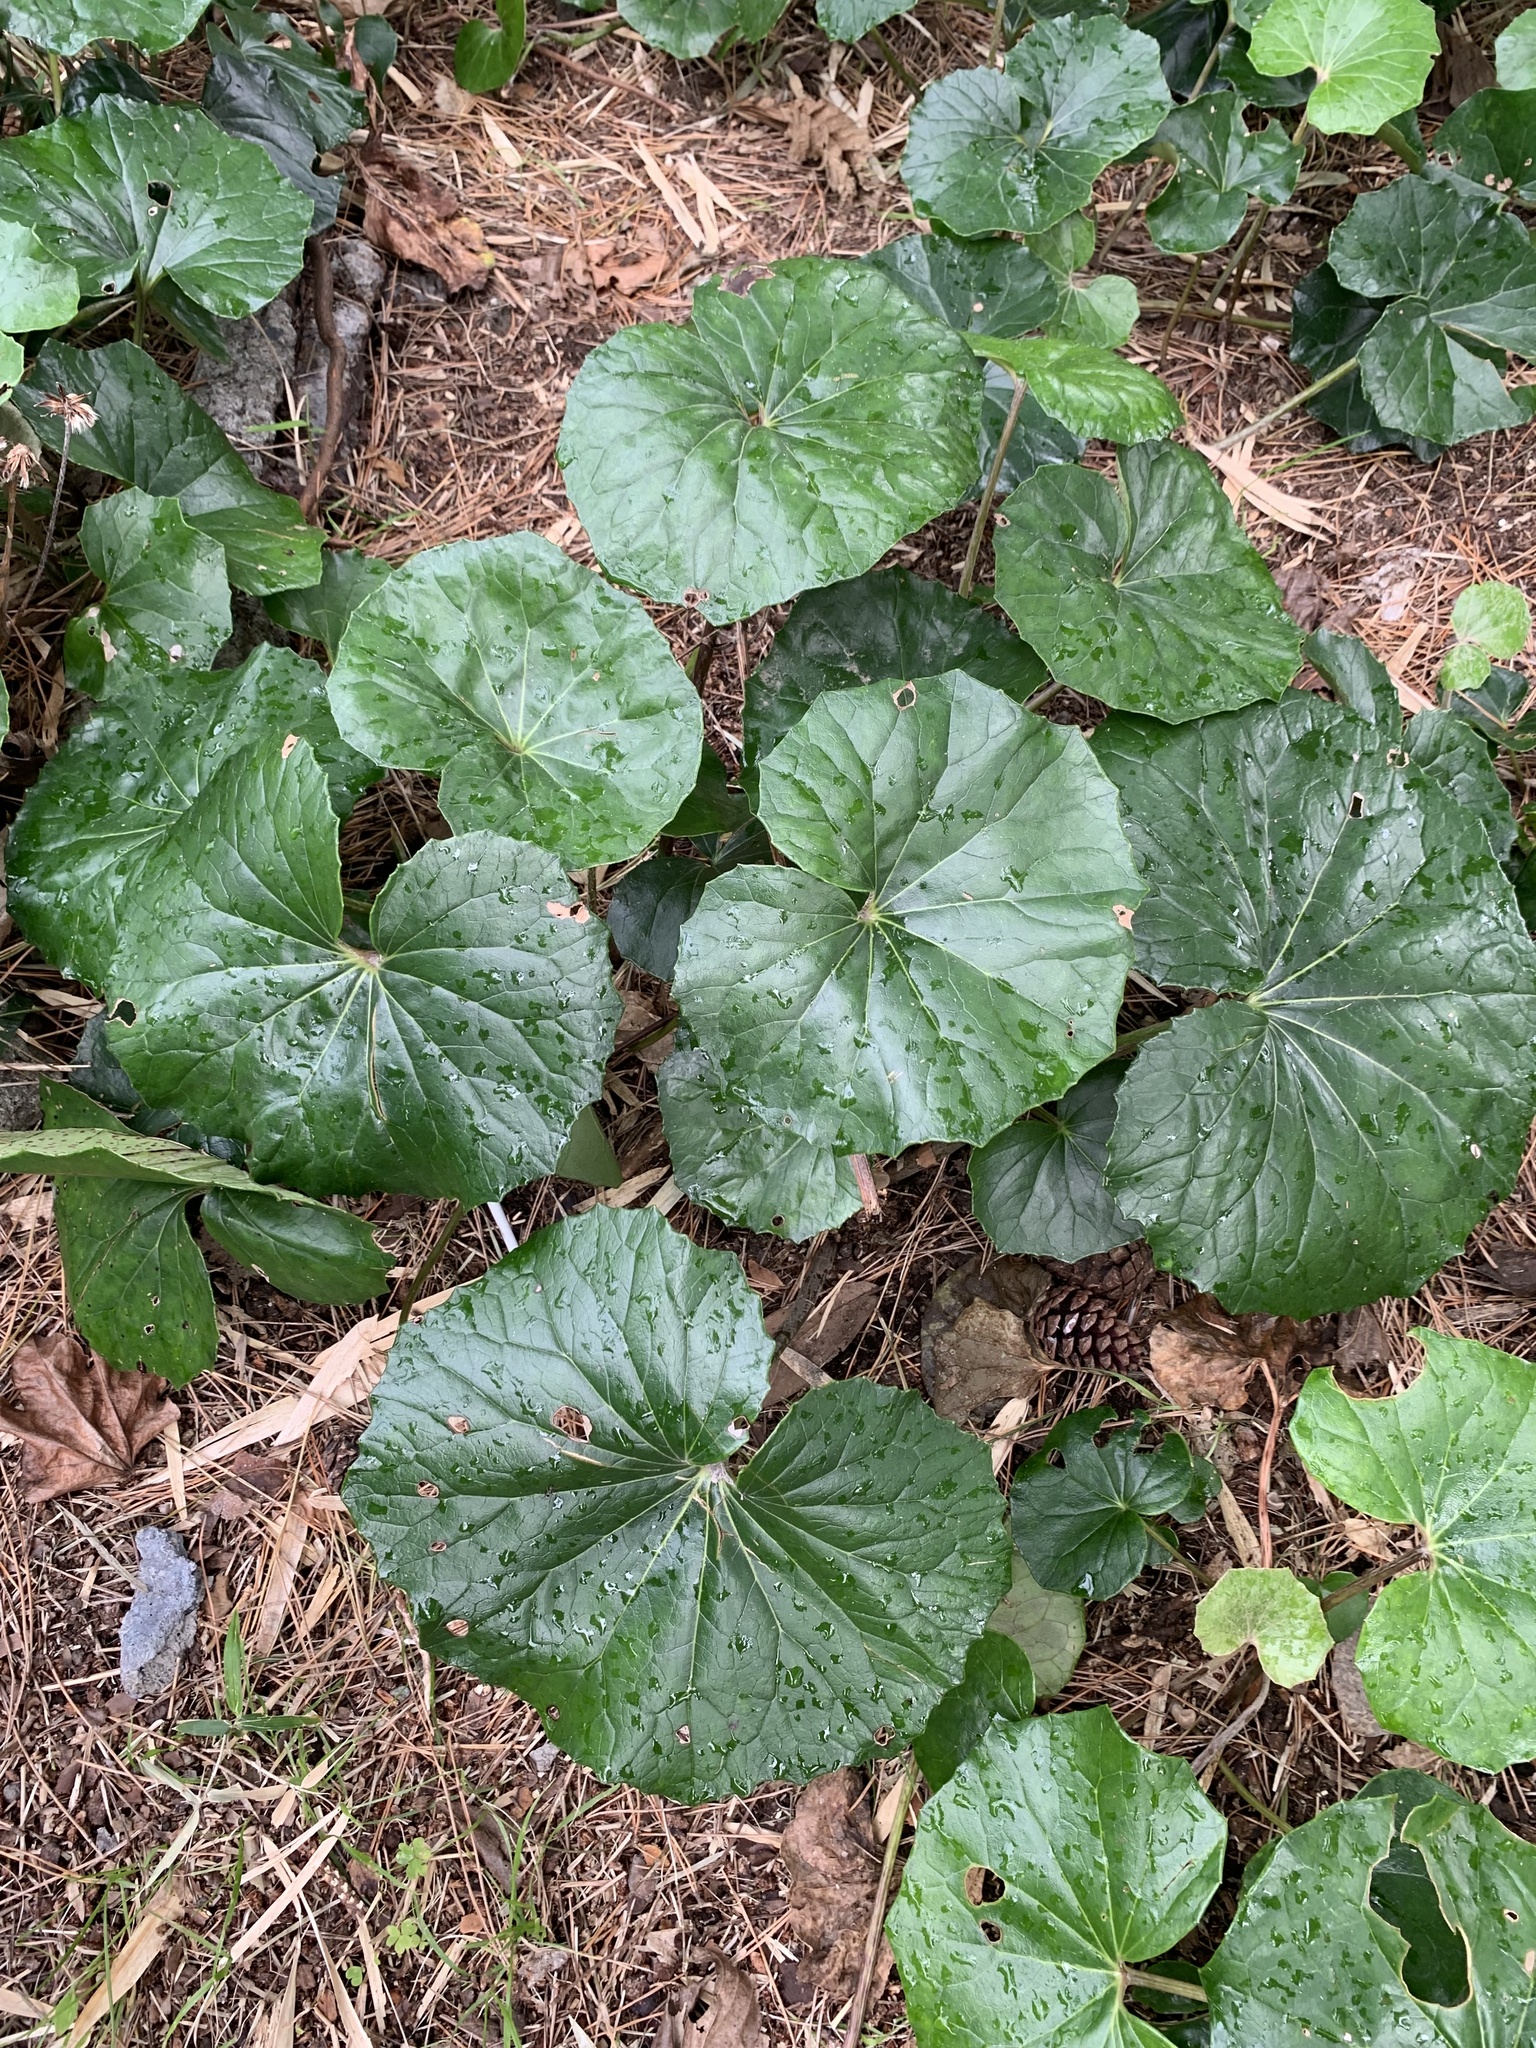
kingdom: Plantae
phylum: Tracheophyta
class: Magnoliopsida
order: Asterales
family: Asteraceae
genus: Farfugium
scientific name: Farfugium japonicum
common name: Leopardplant
